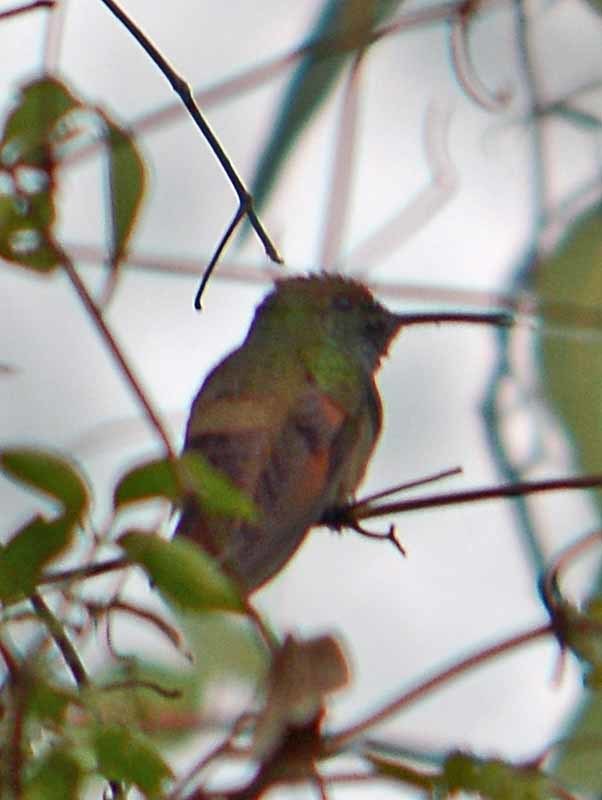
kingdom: Animalia
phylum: Chordata
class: Aves
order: Apodiformes
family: Trochilidae
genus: Saucerottia
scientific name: Saucerottia beryllina
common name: Berylline hummingbird
